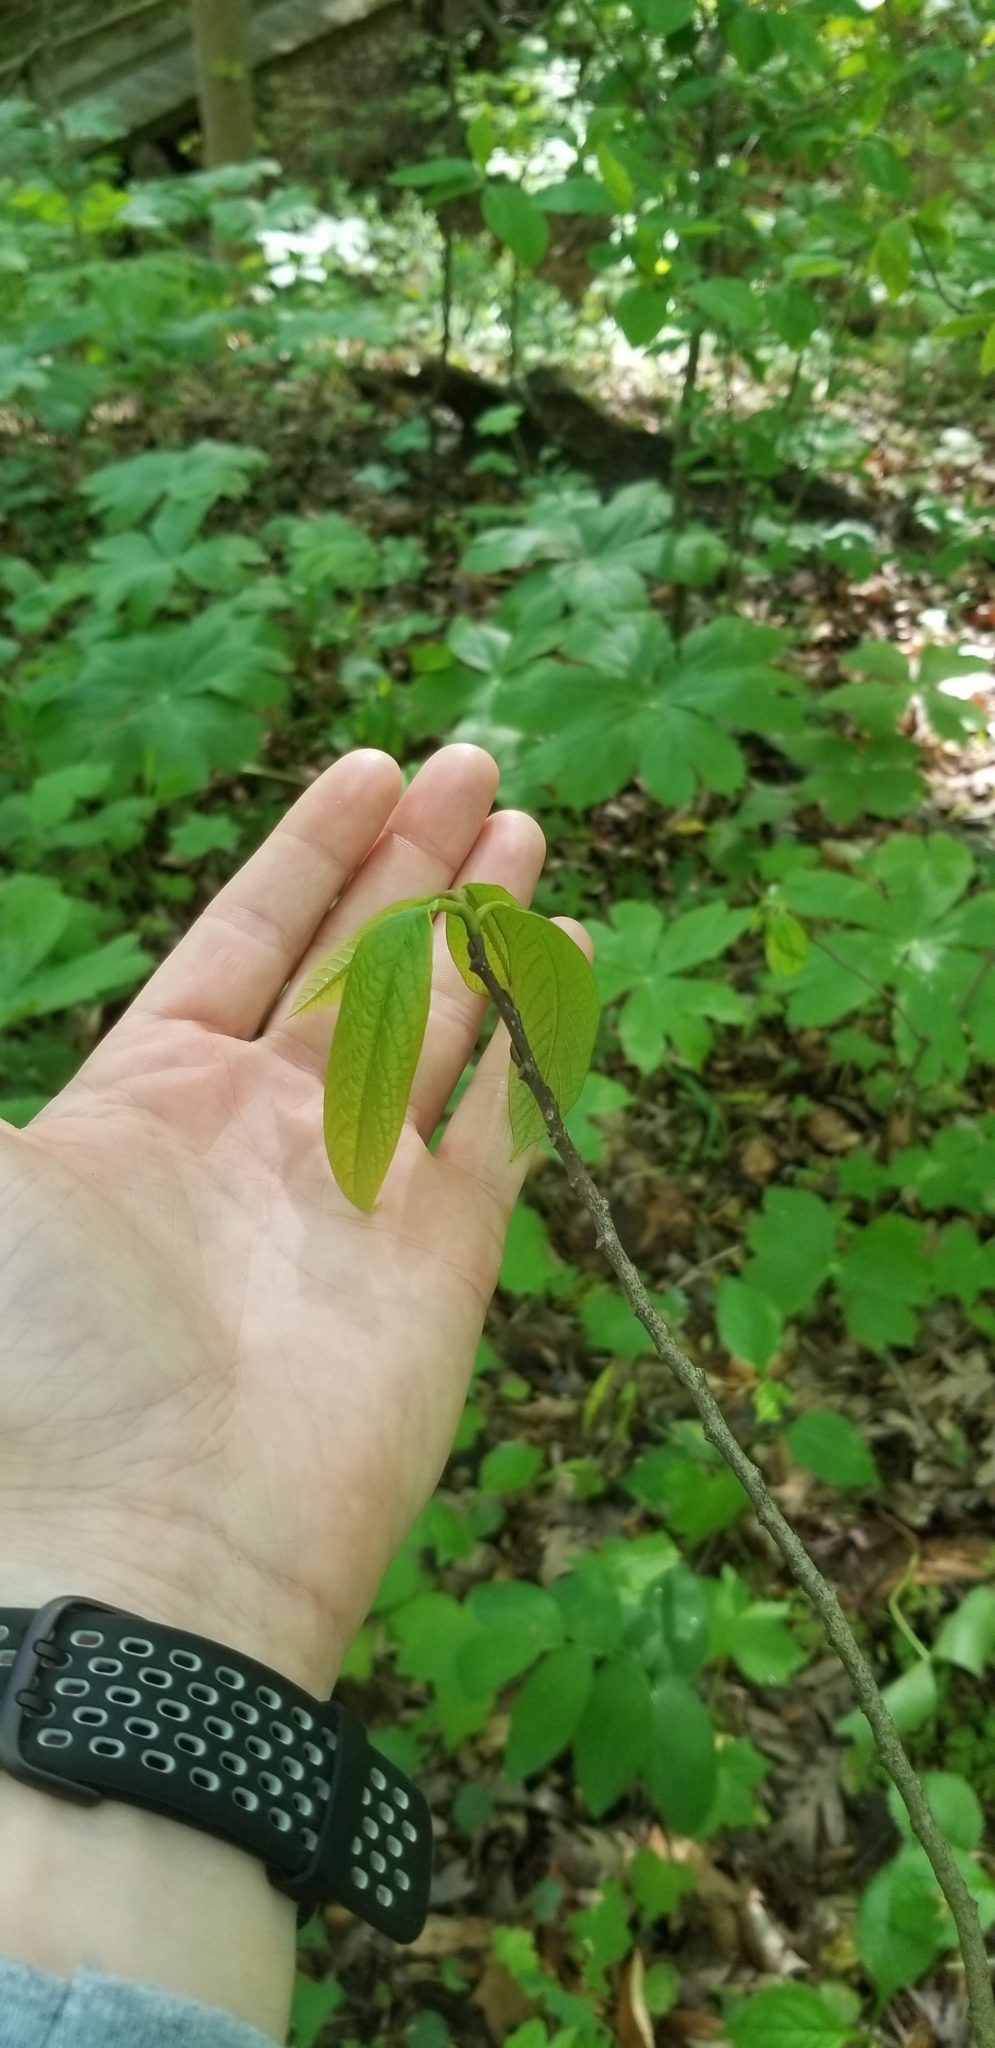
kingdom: Plantae
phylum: Tracheophyta
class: Magnoliopsida
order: Magnoliales
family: Annonaceae
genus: Asimina
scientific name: Asimina triloba
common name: Dog-banana
